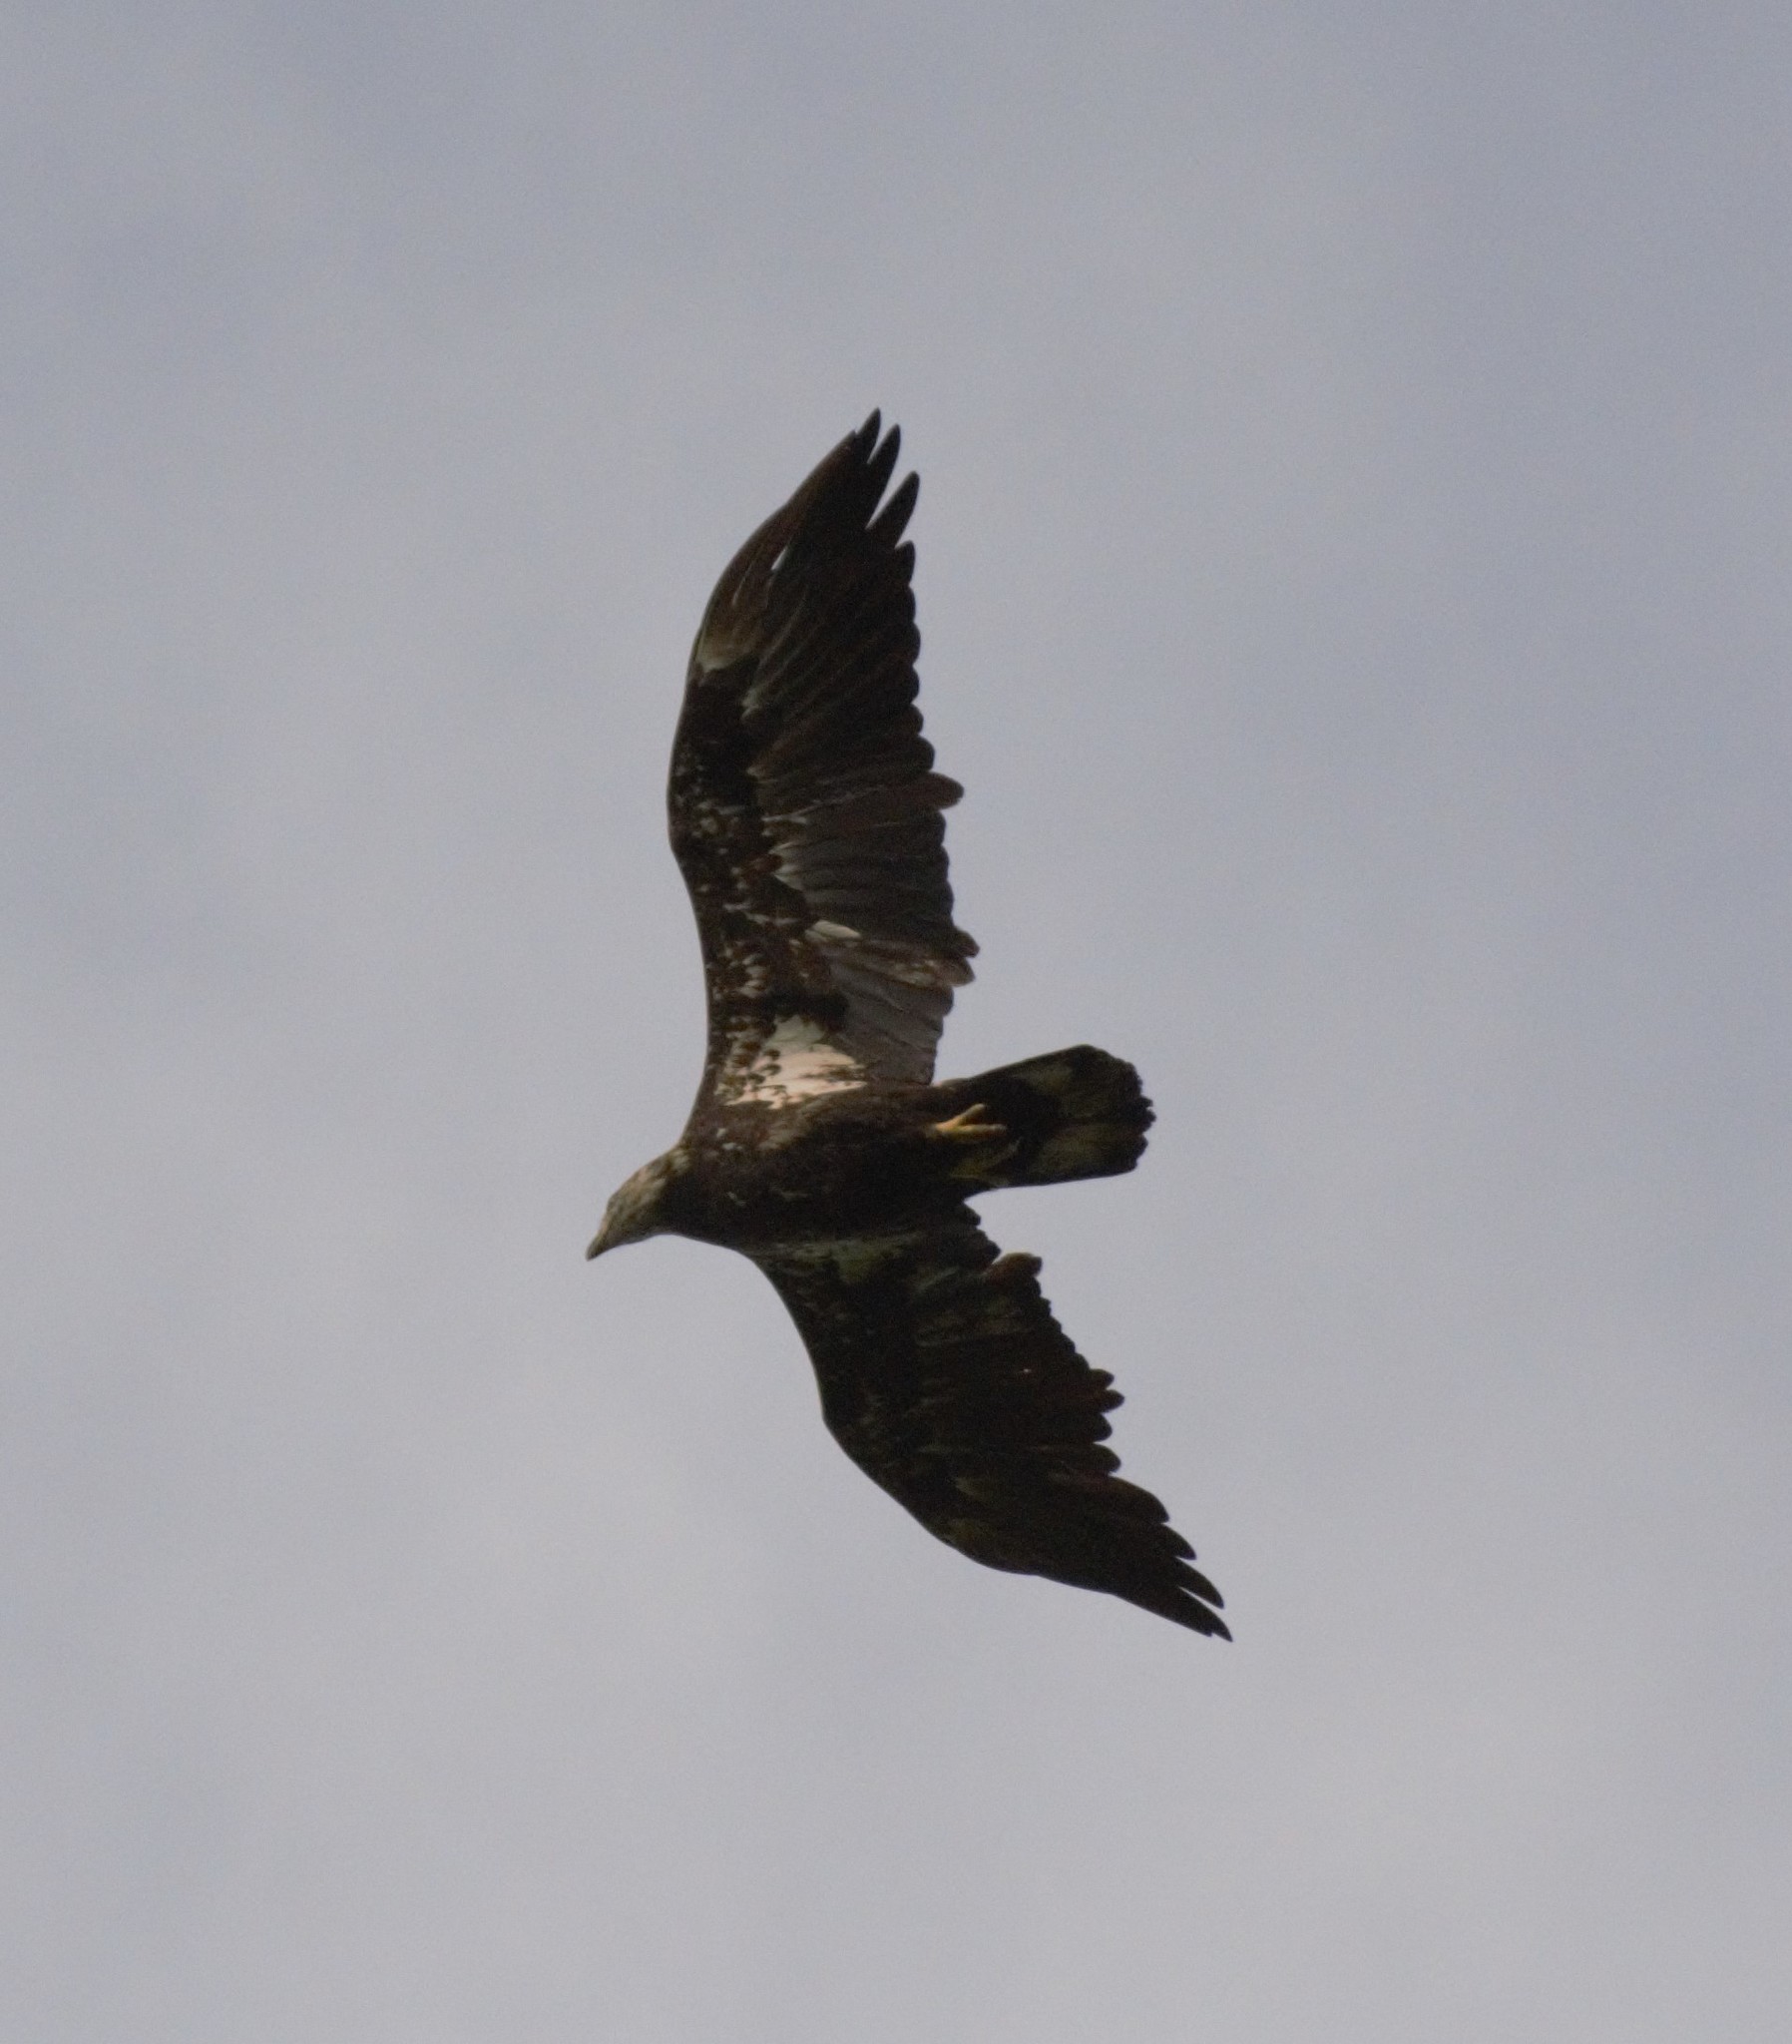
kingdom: Animalia
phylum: Chordata
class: Aves
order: Accipitriformes
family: Accipitridae
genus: Haliaeetus
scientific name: Haliaeetus leucocephalus
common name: Bald eagle
